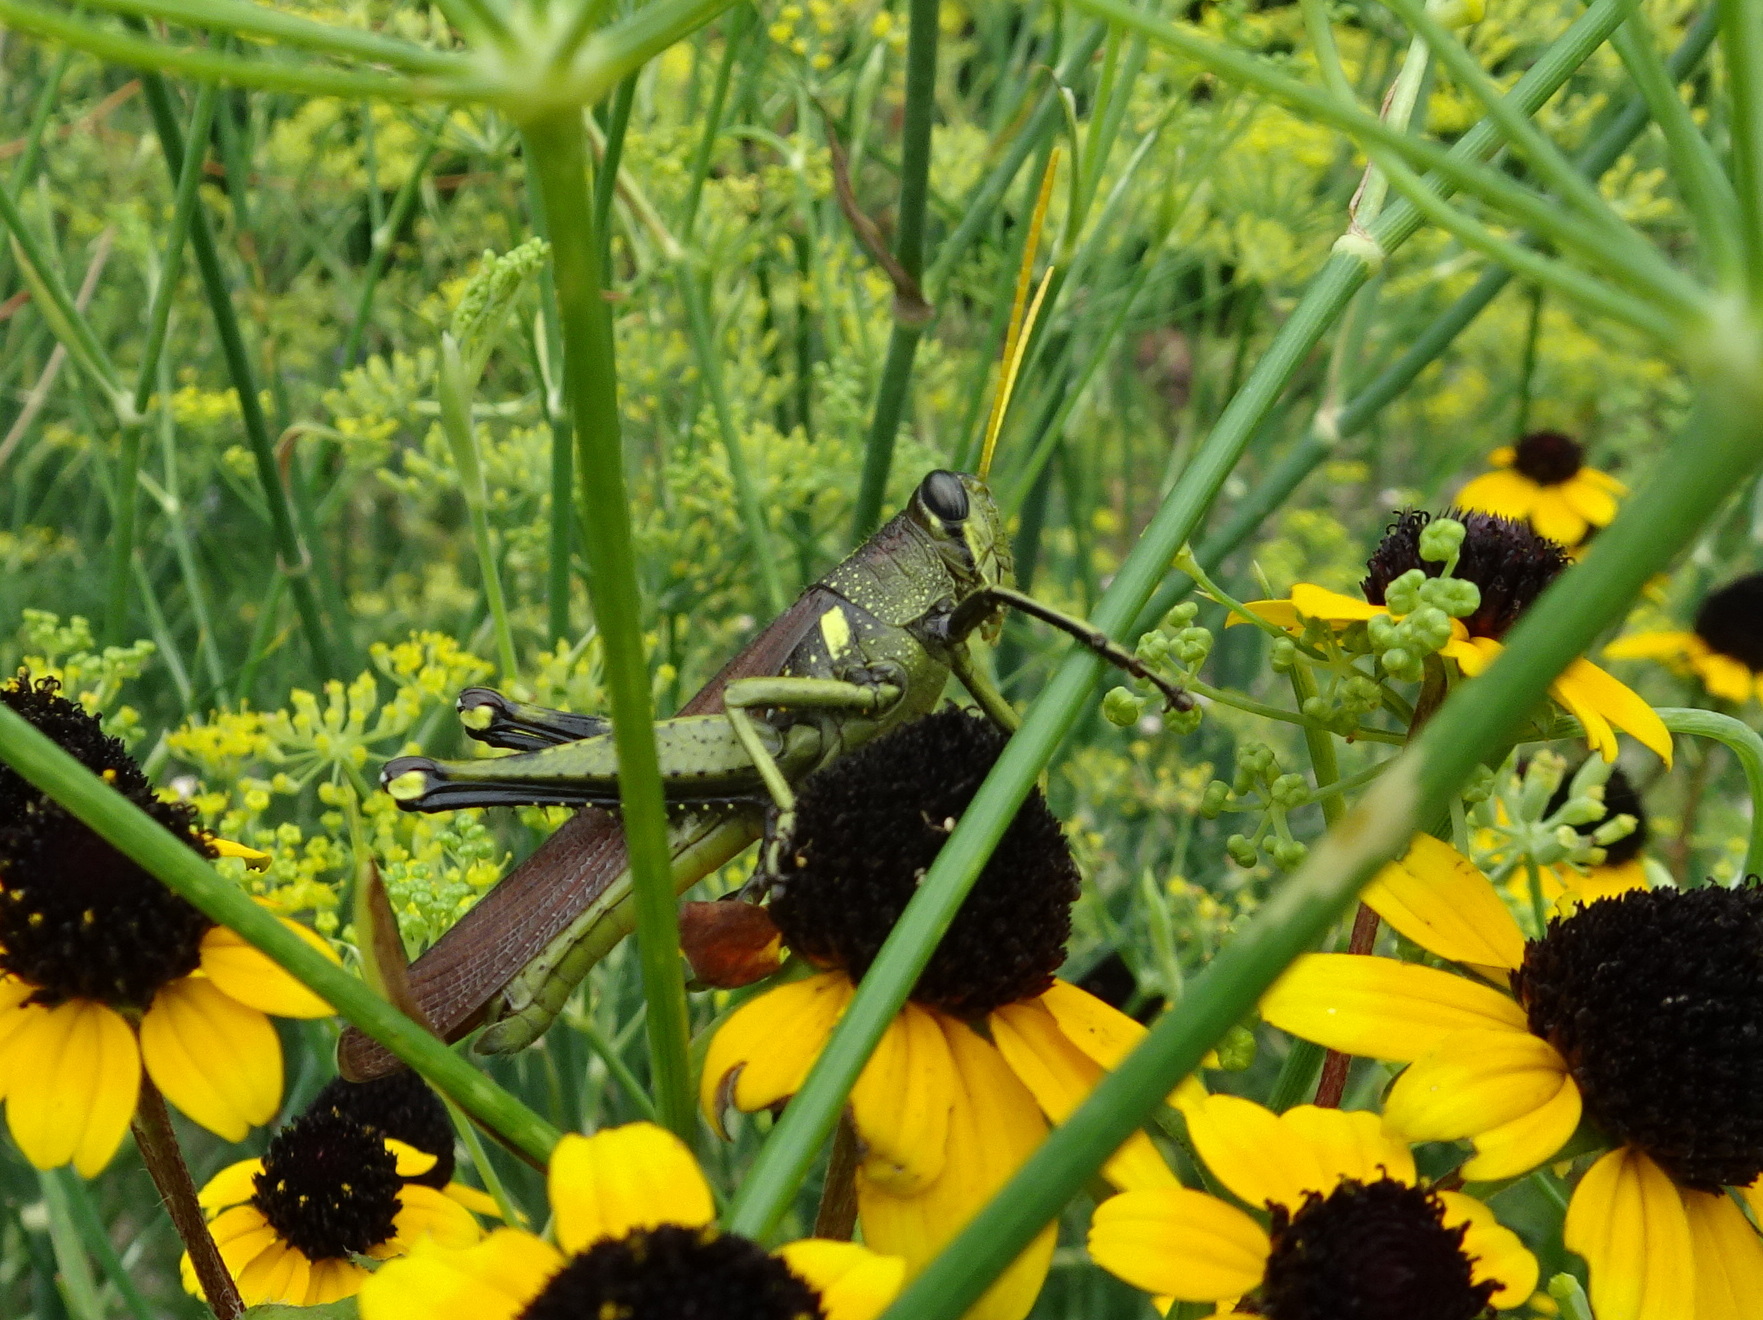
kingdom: Animalia
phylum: Arthropoda
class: Insecta
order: Orthoptera
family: Acrididae
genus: Schistocerca
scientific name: Schistocerca obscura
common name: Obscure bird grasshopper
